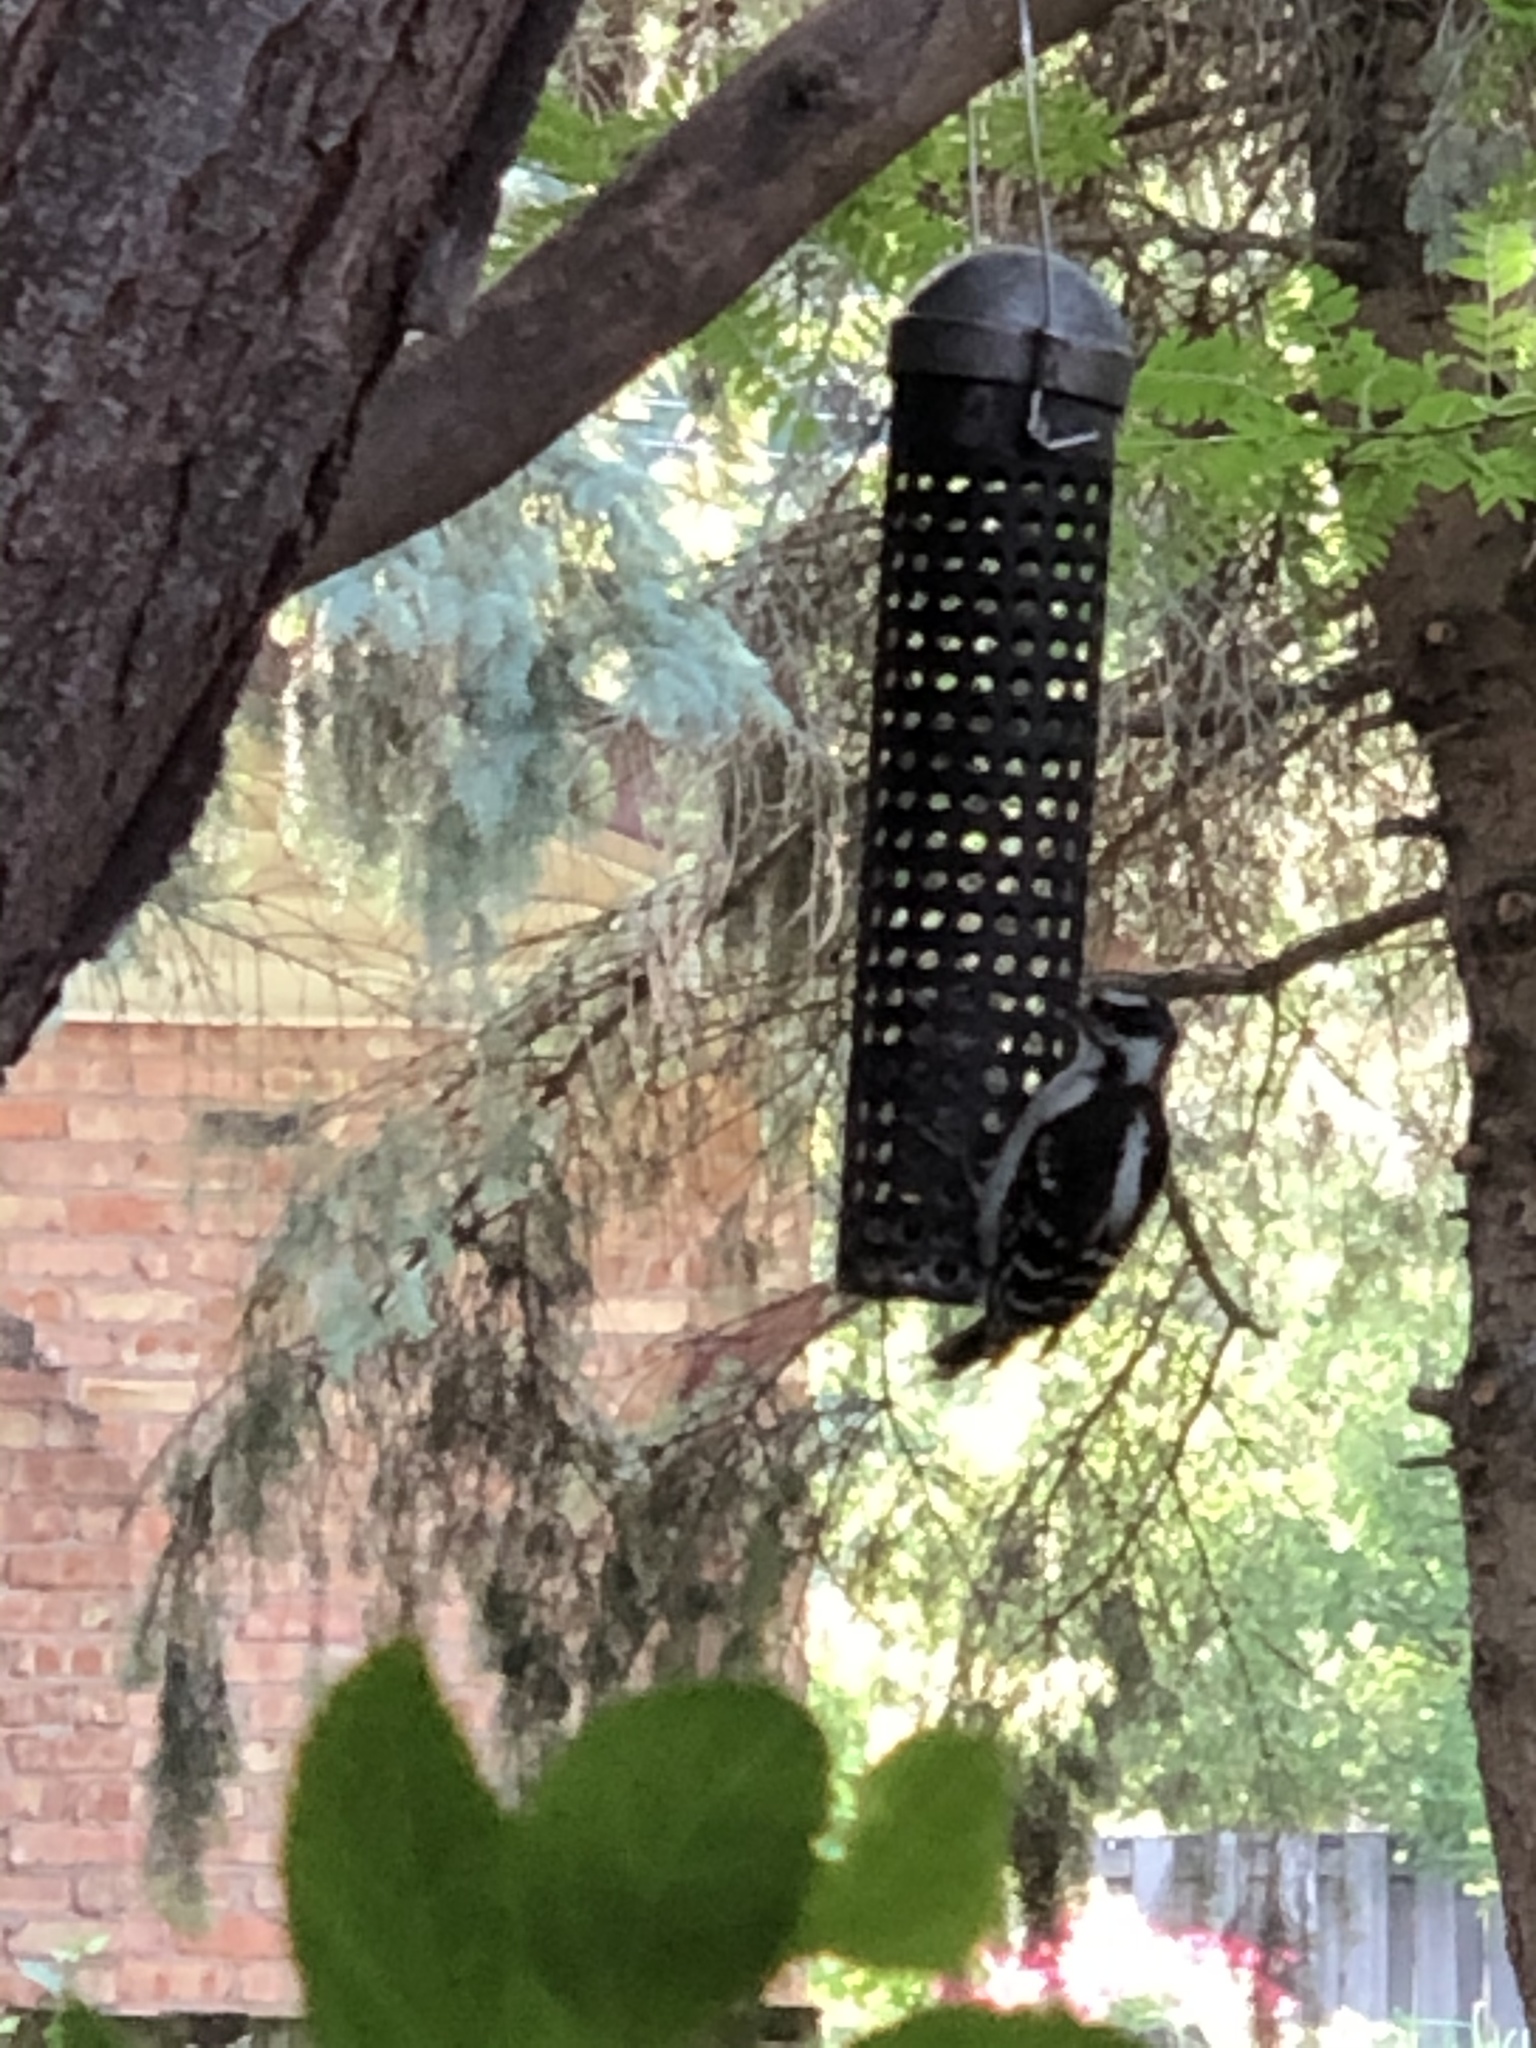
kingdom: Animalia
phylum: Chordata
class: Aves
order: Piciformes
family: Picidae
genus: Dryobates
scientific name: Dryobates pubescens
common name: Downy woodpecker
